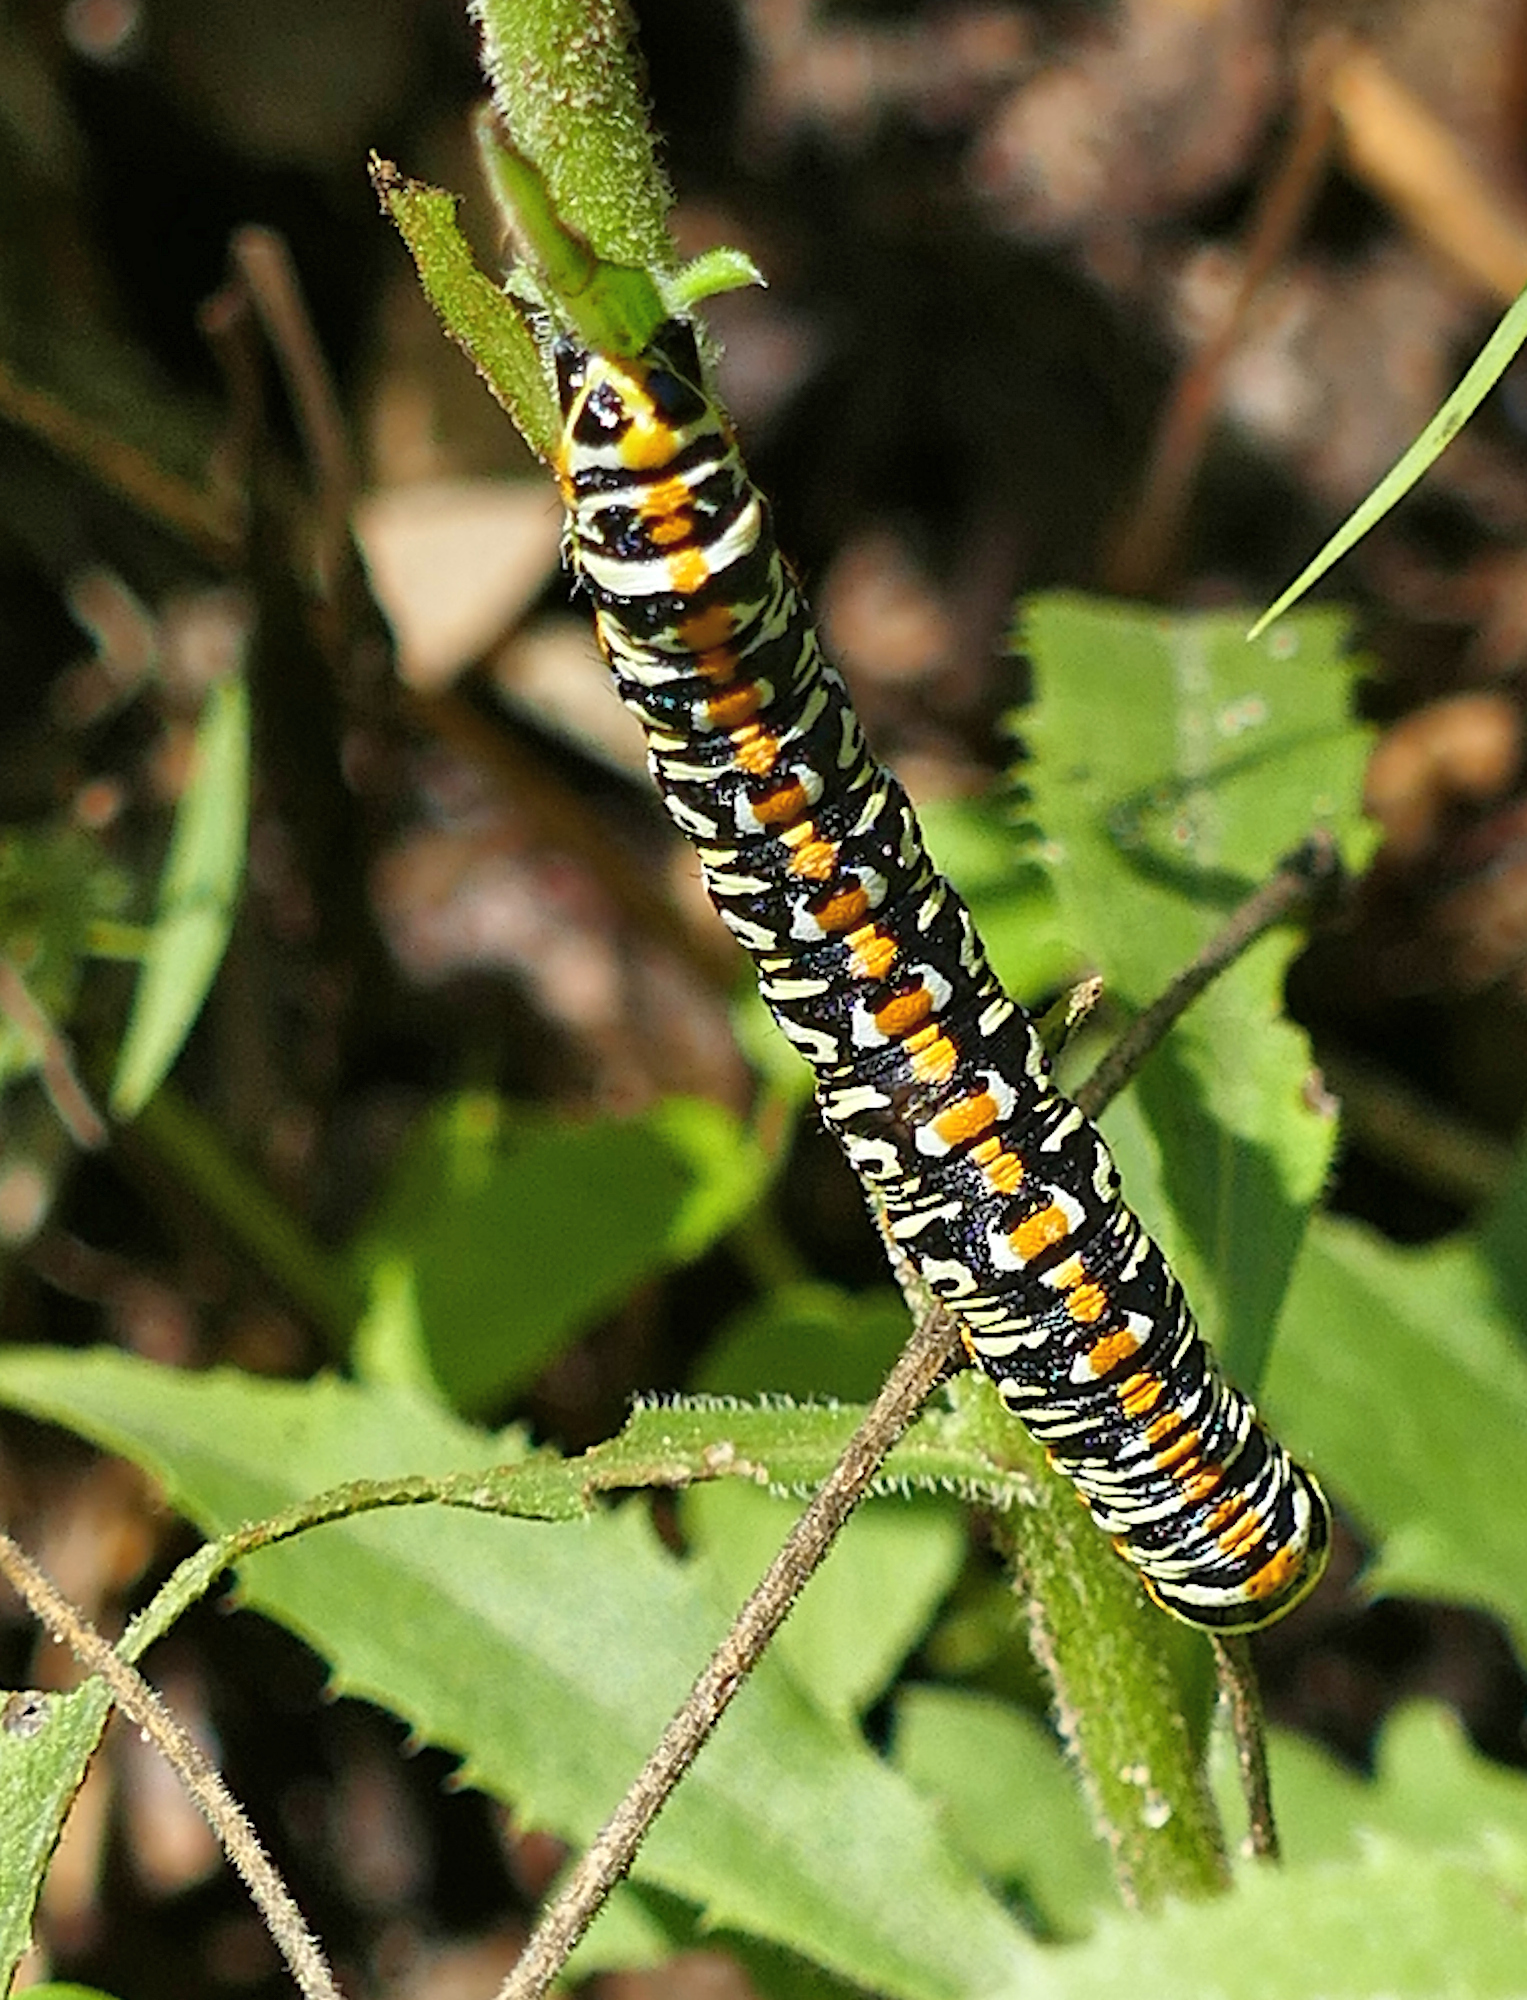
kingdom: Animalia
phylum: Arthropoda
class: Insecta
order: Lepidoptera
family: Noctuidae
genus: Cucullia
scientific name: Cucullia dorsalis
